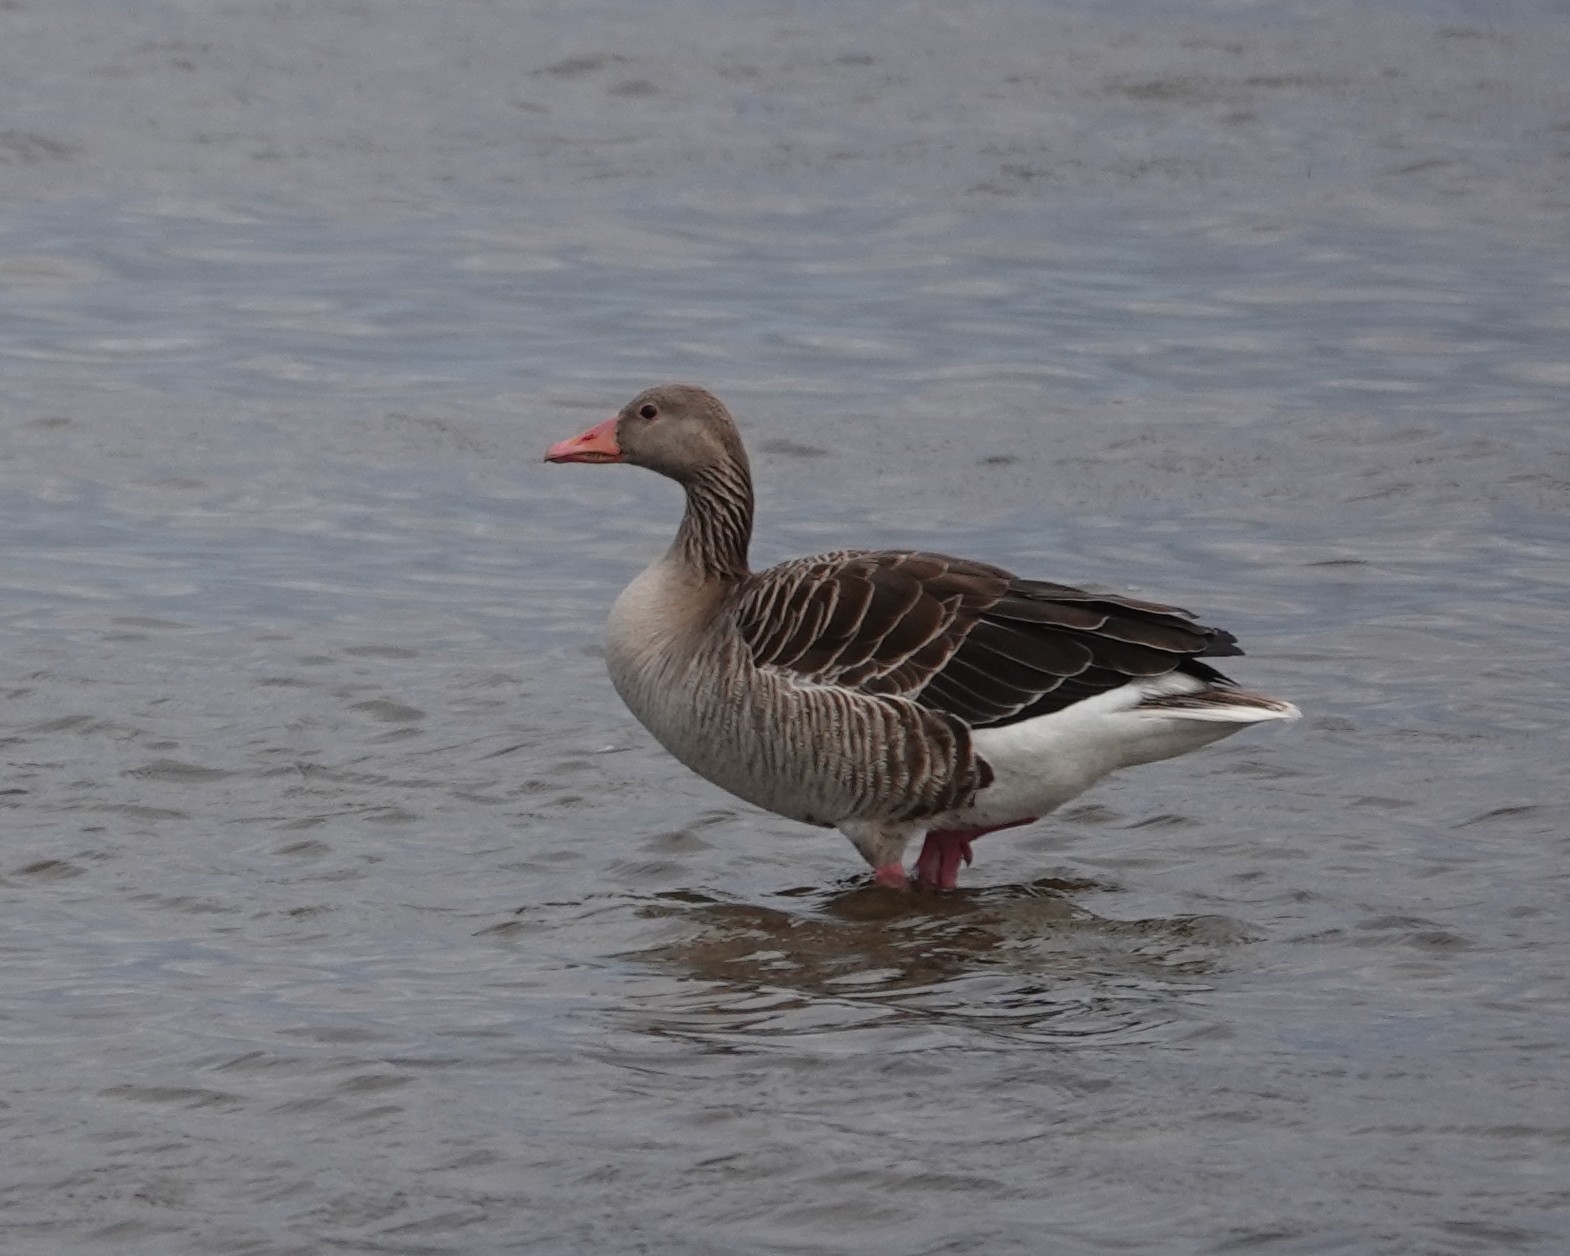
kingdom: Animalia
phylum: Chordata
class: Aves
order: Anseriformes
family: Anatidae
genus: Anser
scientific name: Anser anser
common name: Greylag goose
